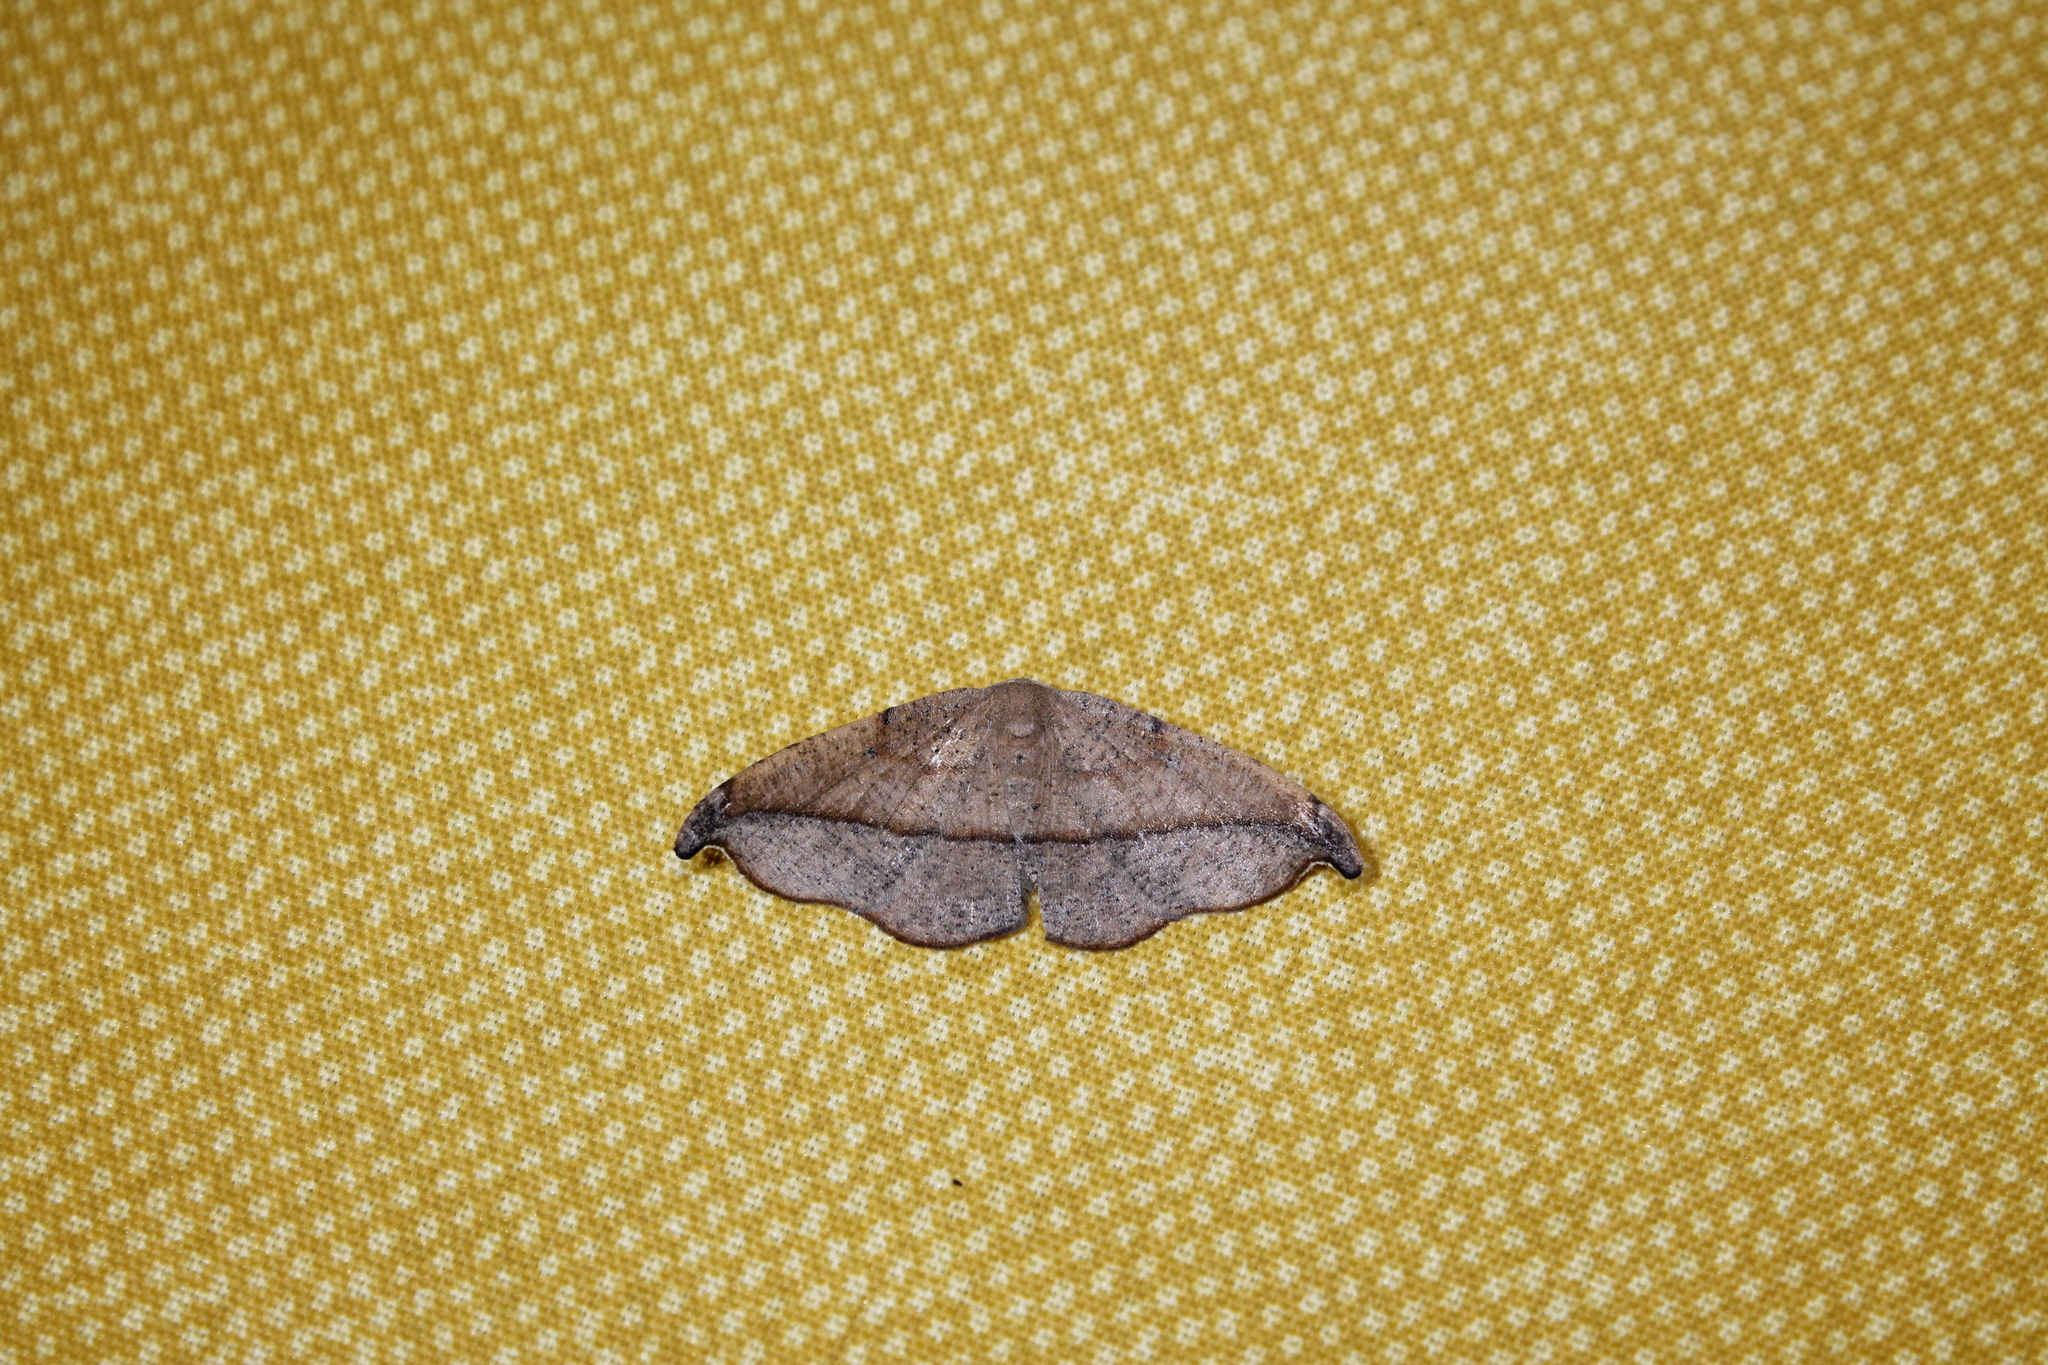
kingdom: Animalia
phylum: Arthropoda
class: Insecta
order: Lepidoptera
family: Geometridae
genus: Patalene
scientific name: Patalene olyzonaria
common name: Juniper geometer moth
